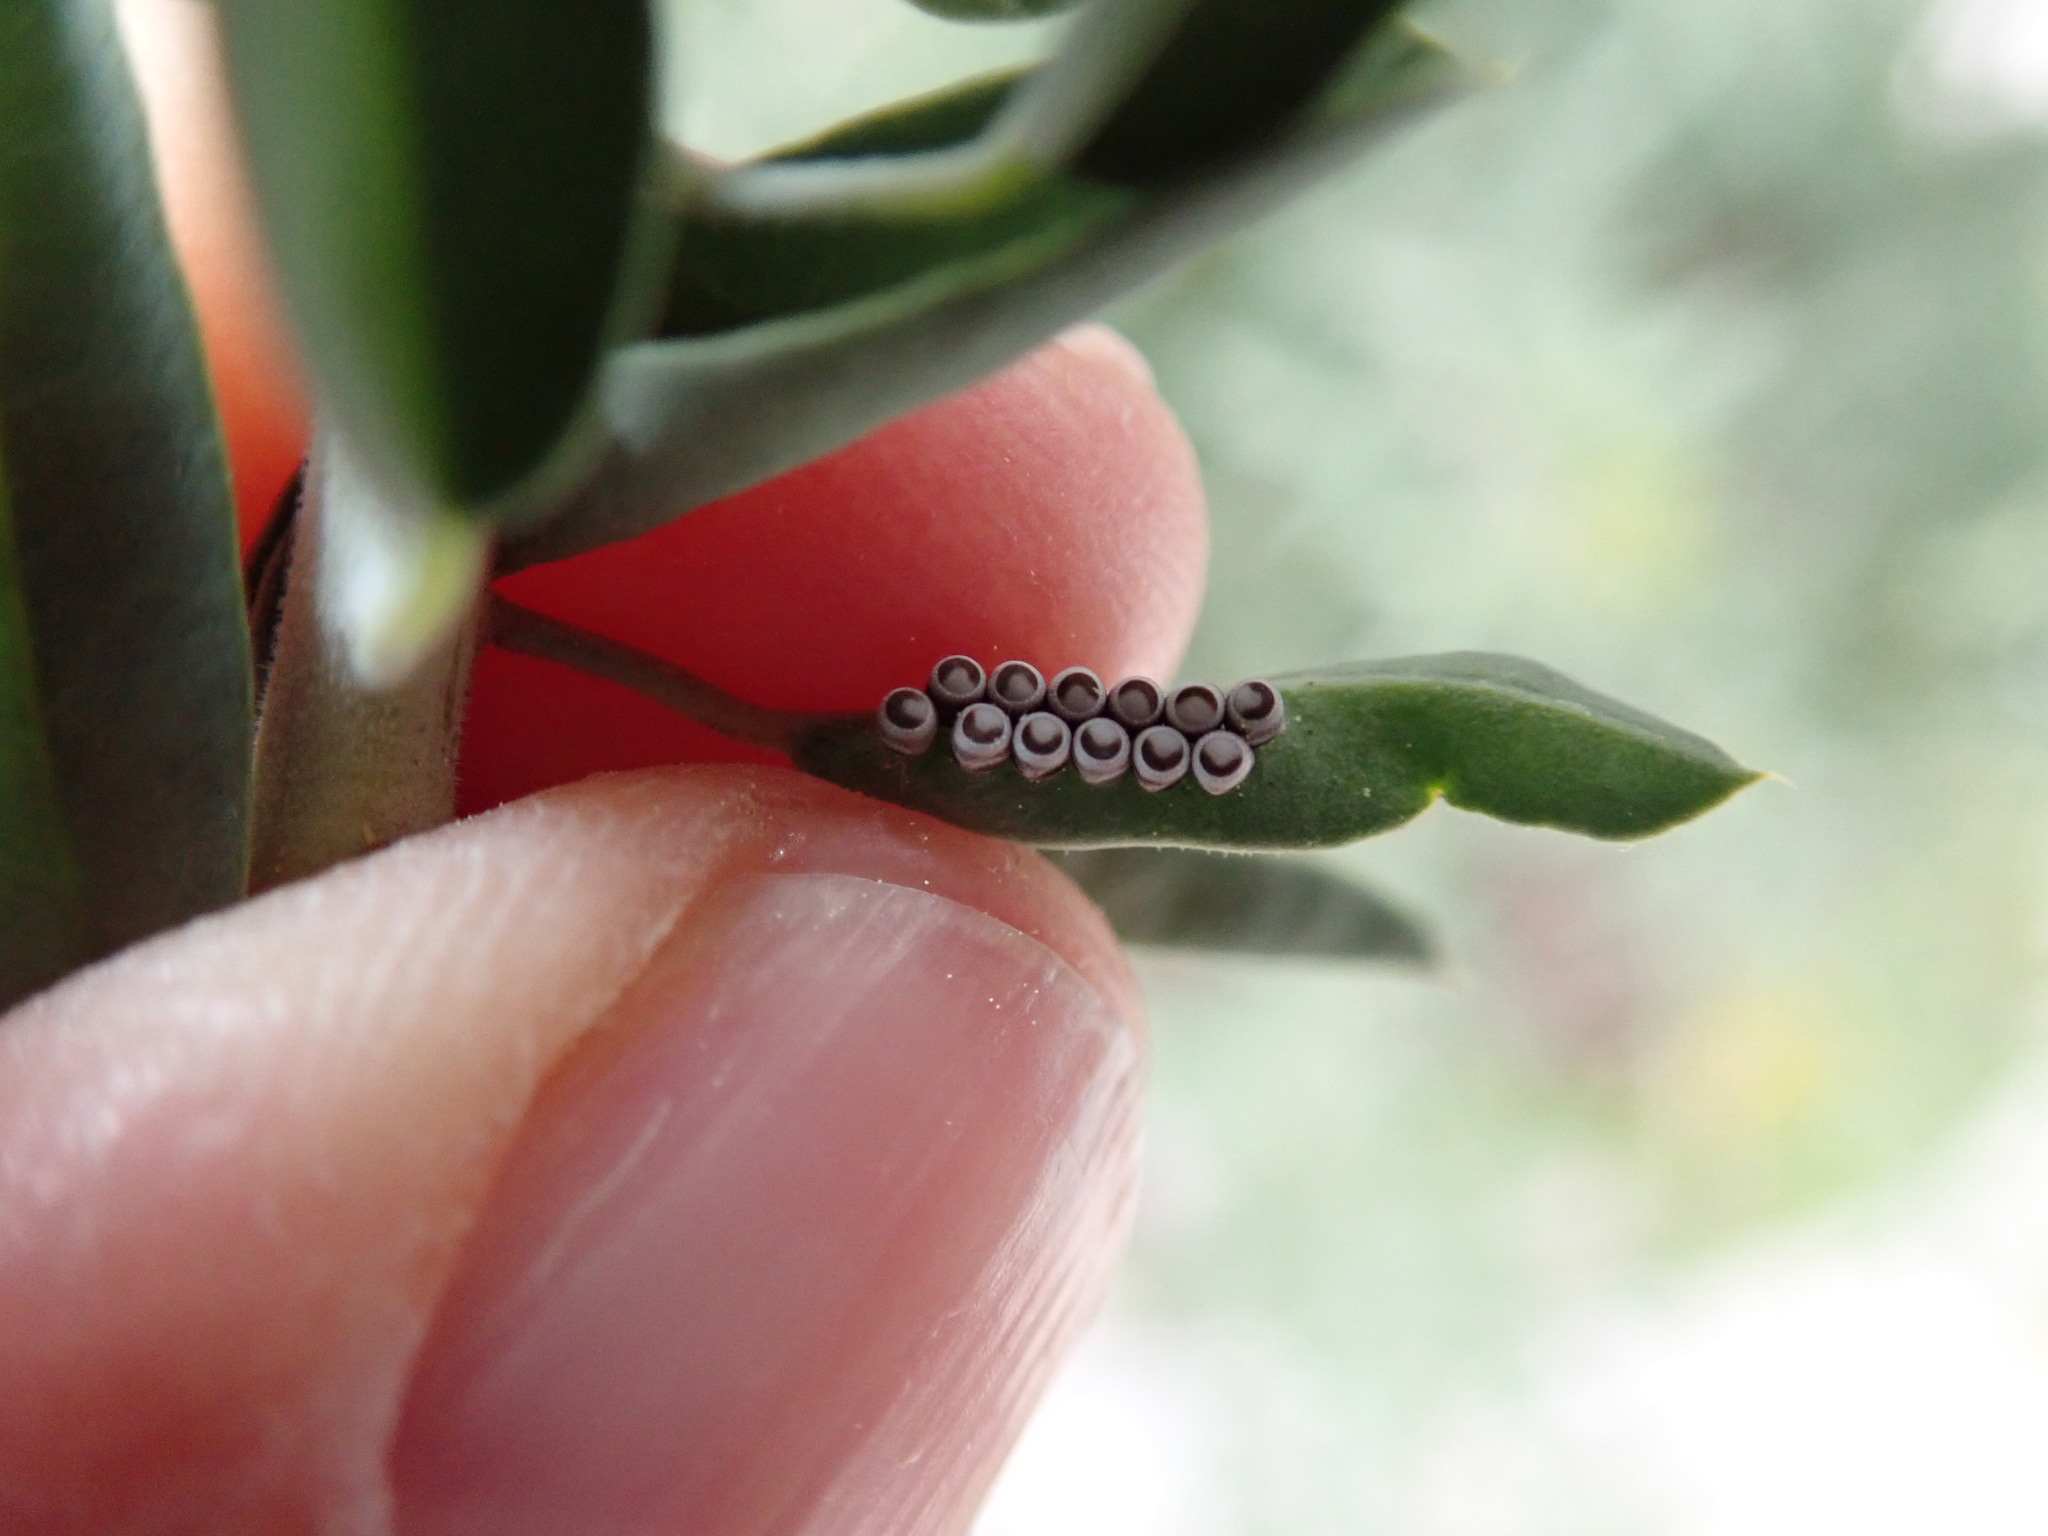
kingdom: Animalia
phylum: Arthropoda
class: Insecta
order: Hemiptera
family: Pentatomidae
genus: Murgantia
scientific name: Murgantia histrionica
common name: Harlequin bug
